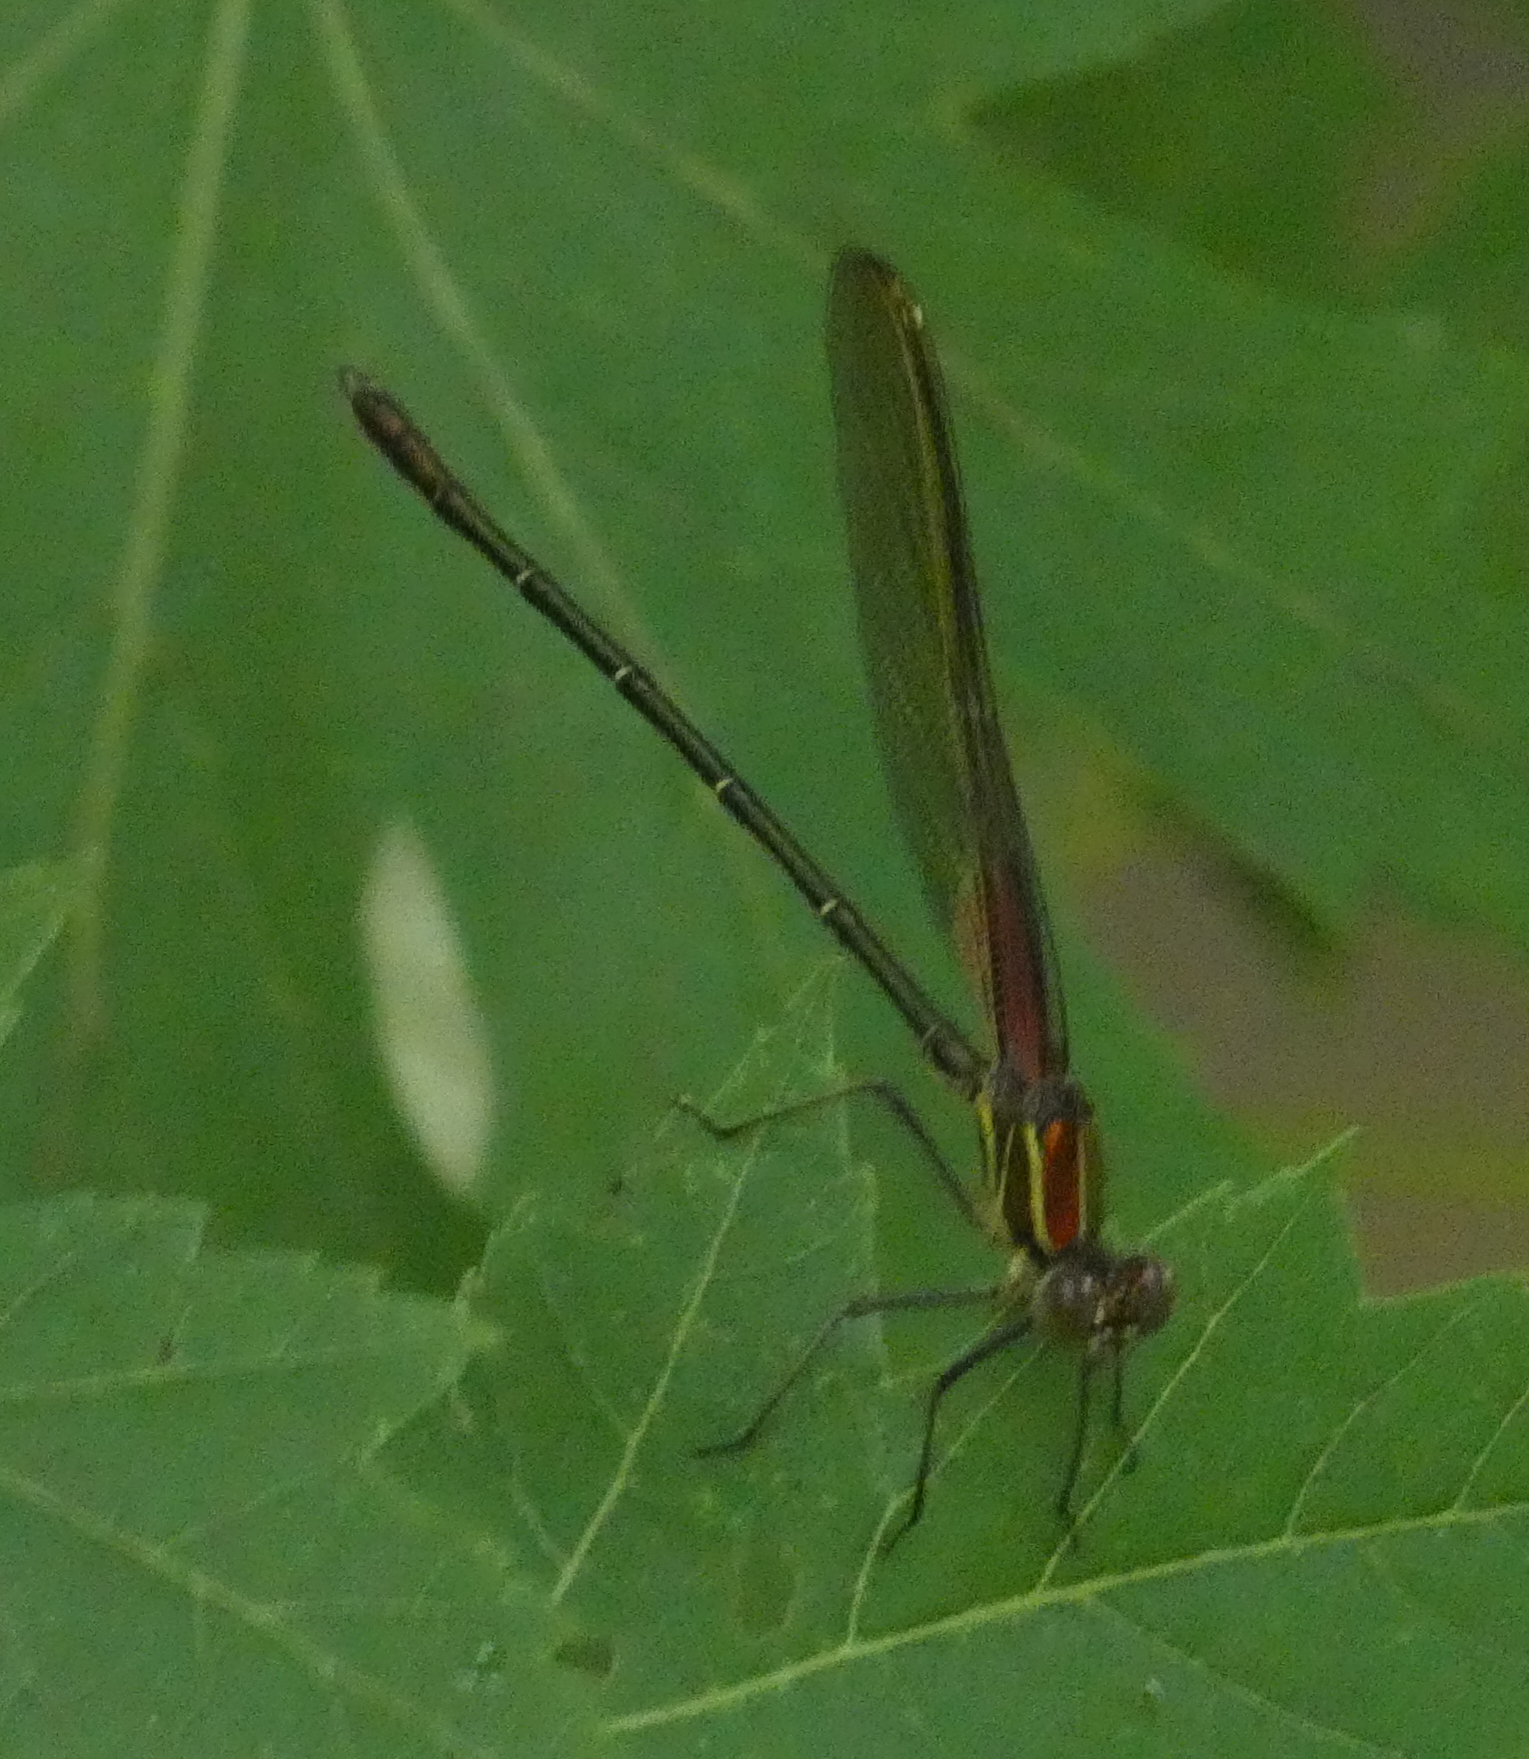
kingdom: Animalia
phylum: Arthropoda
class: Insecta
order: Odonata
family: Calopterygidae
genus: Hetaerina
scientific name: Hetaerina americana
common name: American rubyspot
